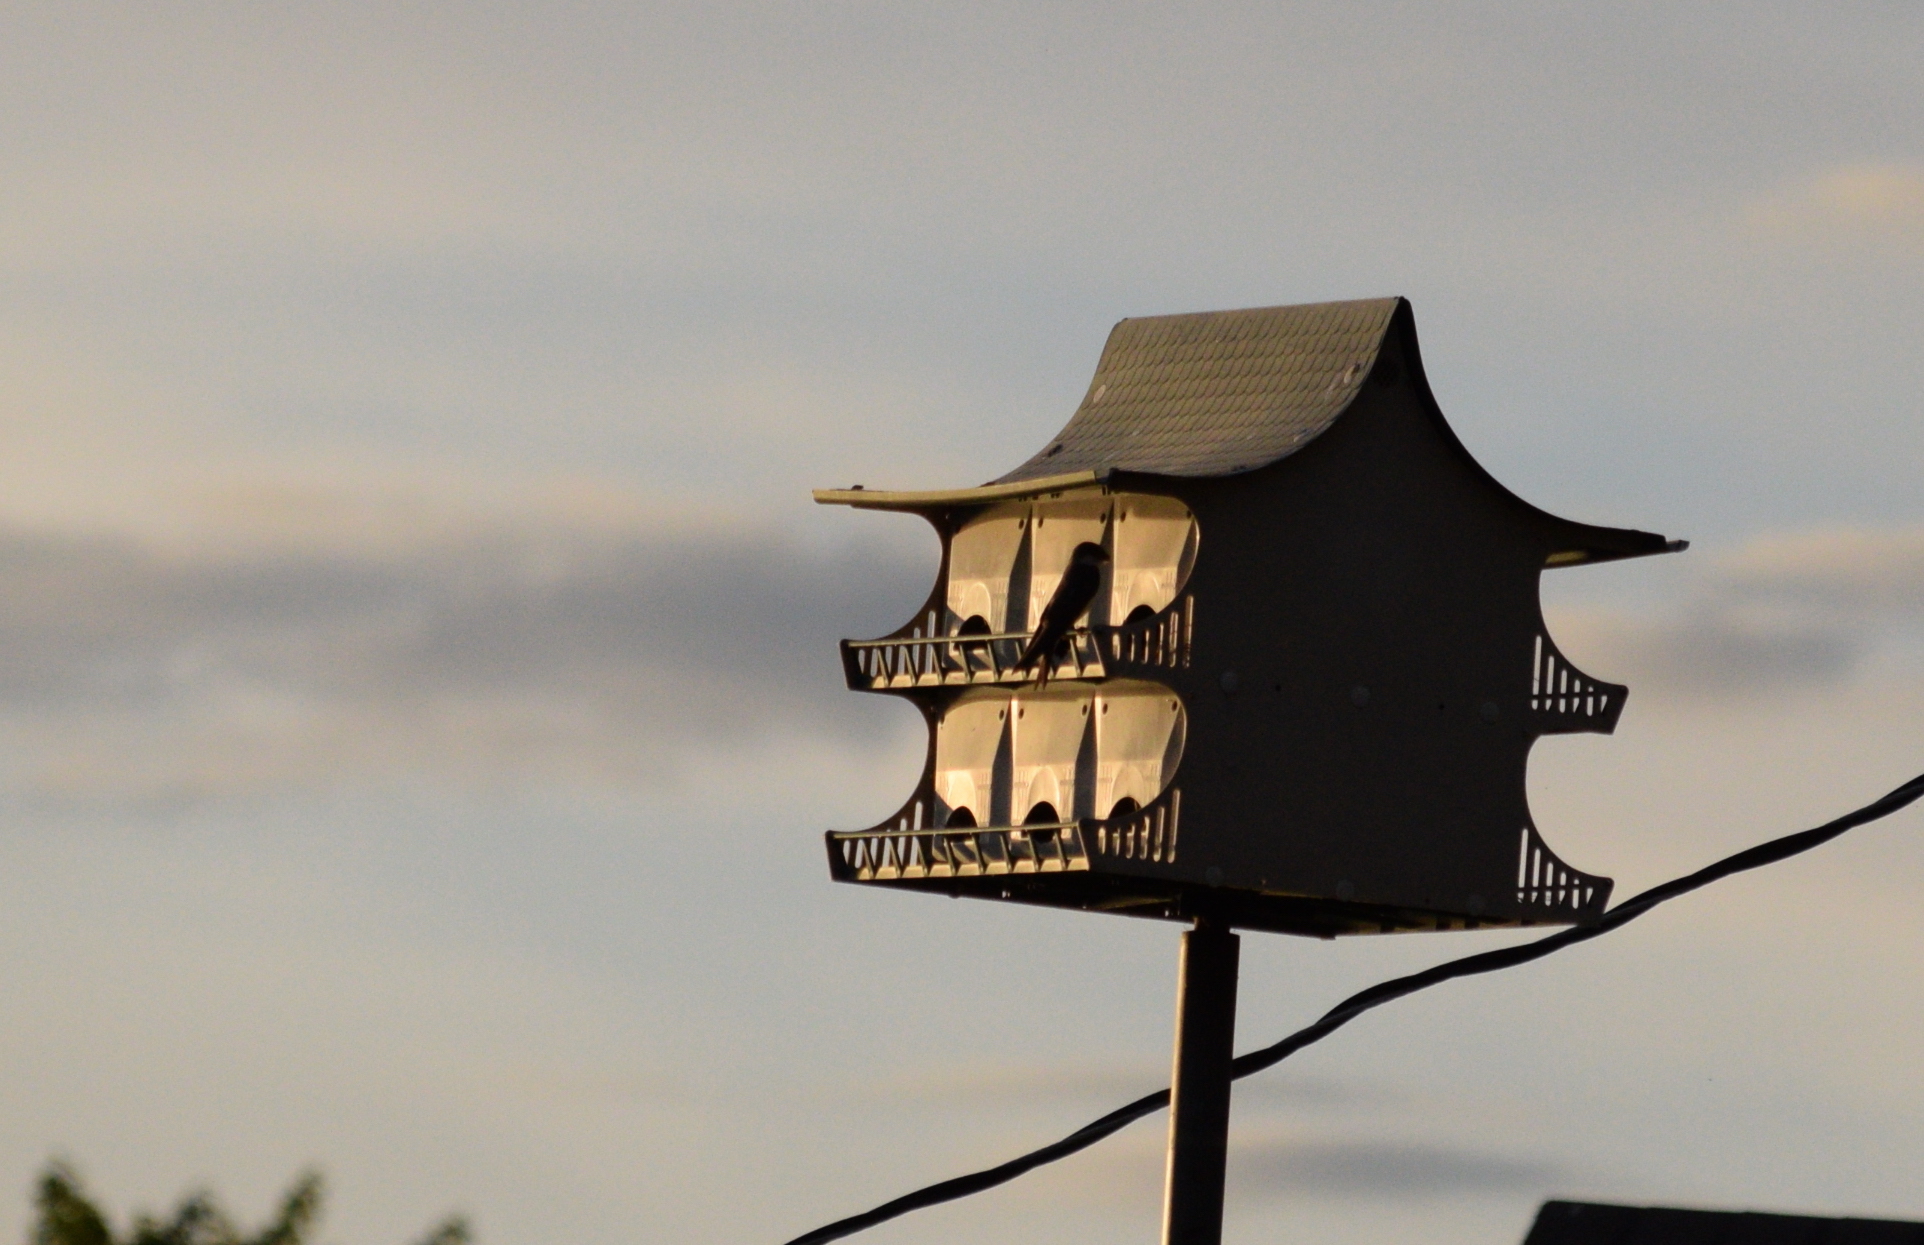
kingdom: Animalia
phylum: Chordata
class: Aves
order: Passeriformes
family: Hirundinidae
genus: Tachycineta
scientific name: Tachycineta bicolor
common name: Tree swallow
